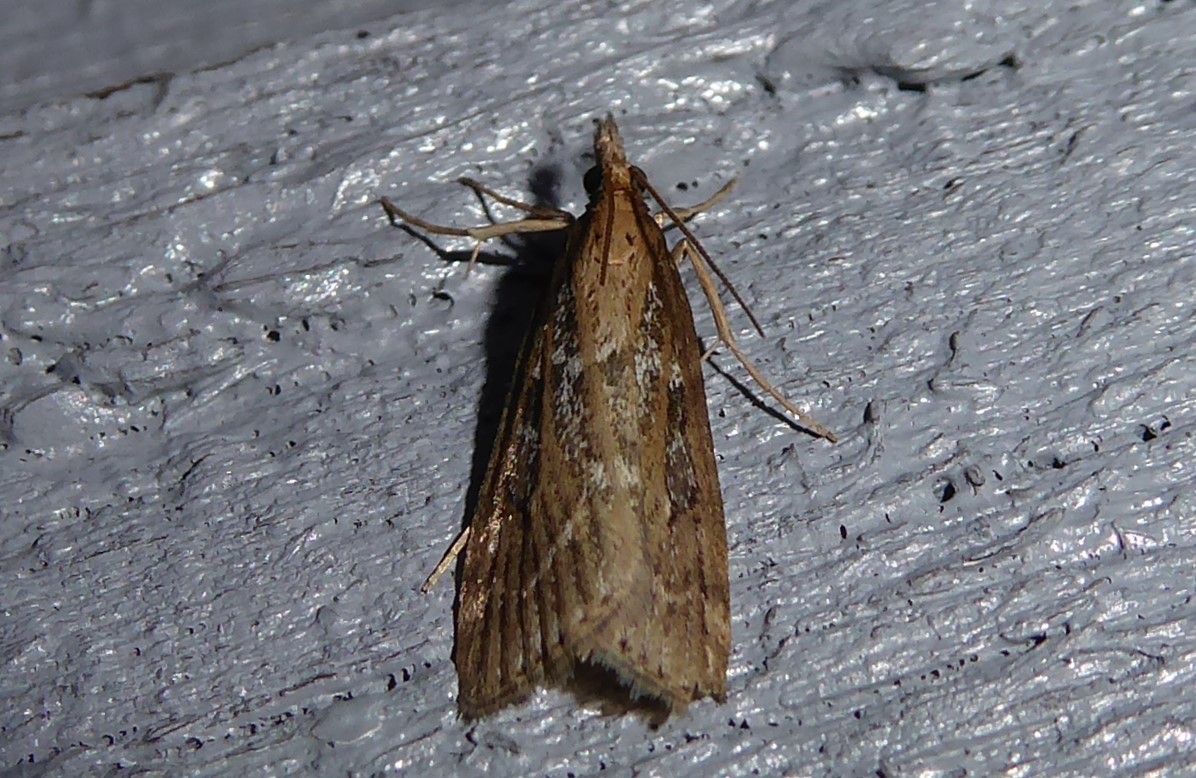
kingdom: Animalia
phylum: Arthropoda
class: Insecta
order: Lepidoptera
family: Crambidae
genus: Eudonia
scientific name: Eudonia octophora
